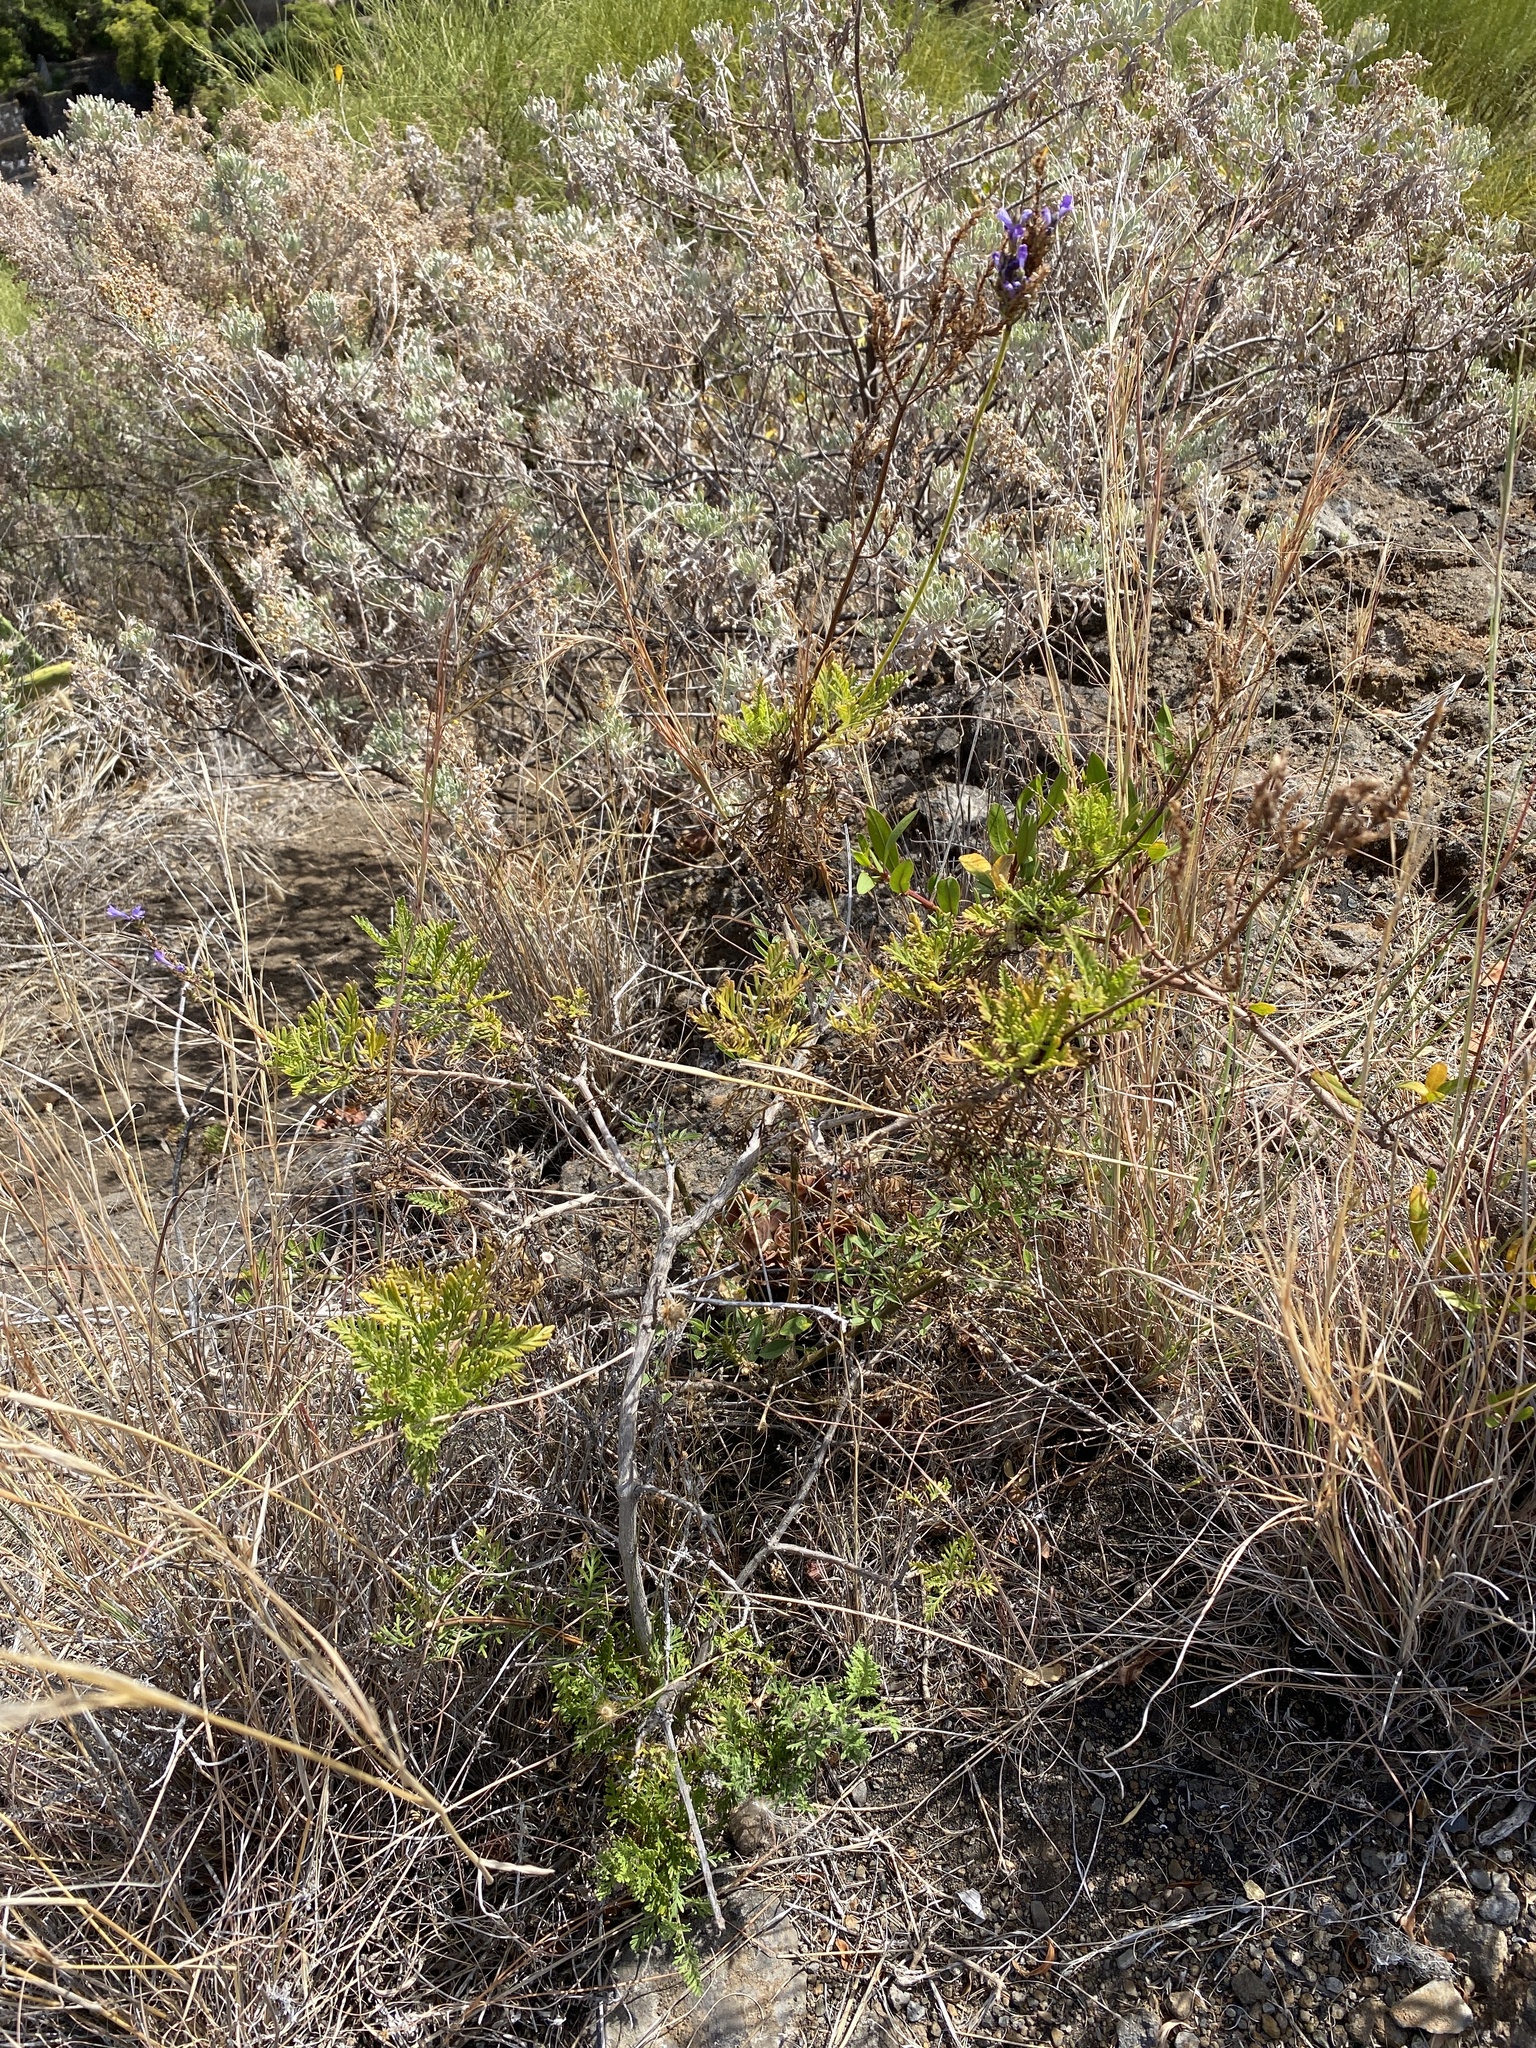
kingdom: Plantae
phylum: Tracheophyta
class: Magnoliopsida
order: Lamiales
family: Lamiaceae
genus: Lavandula
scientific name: Lavandula canariensis
